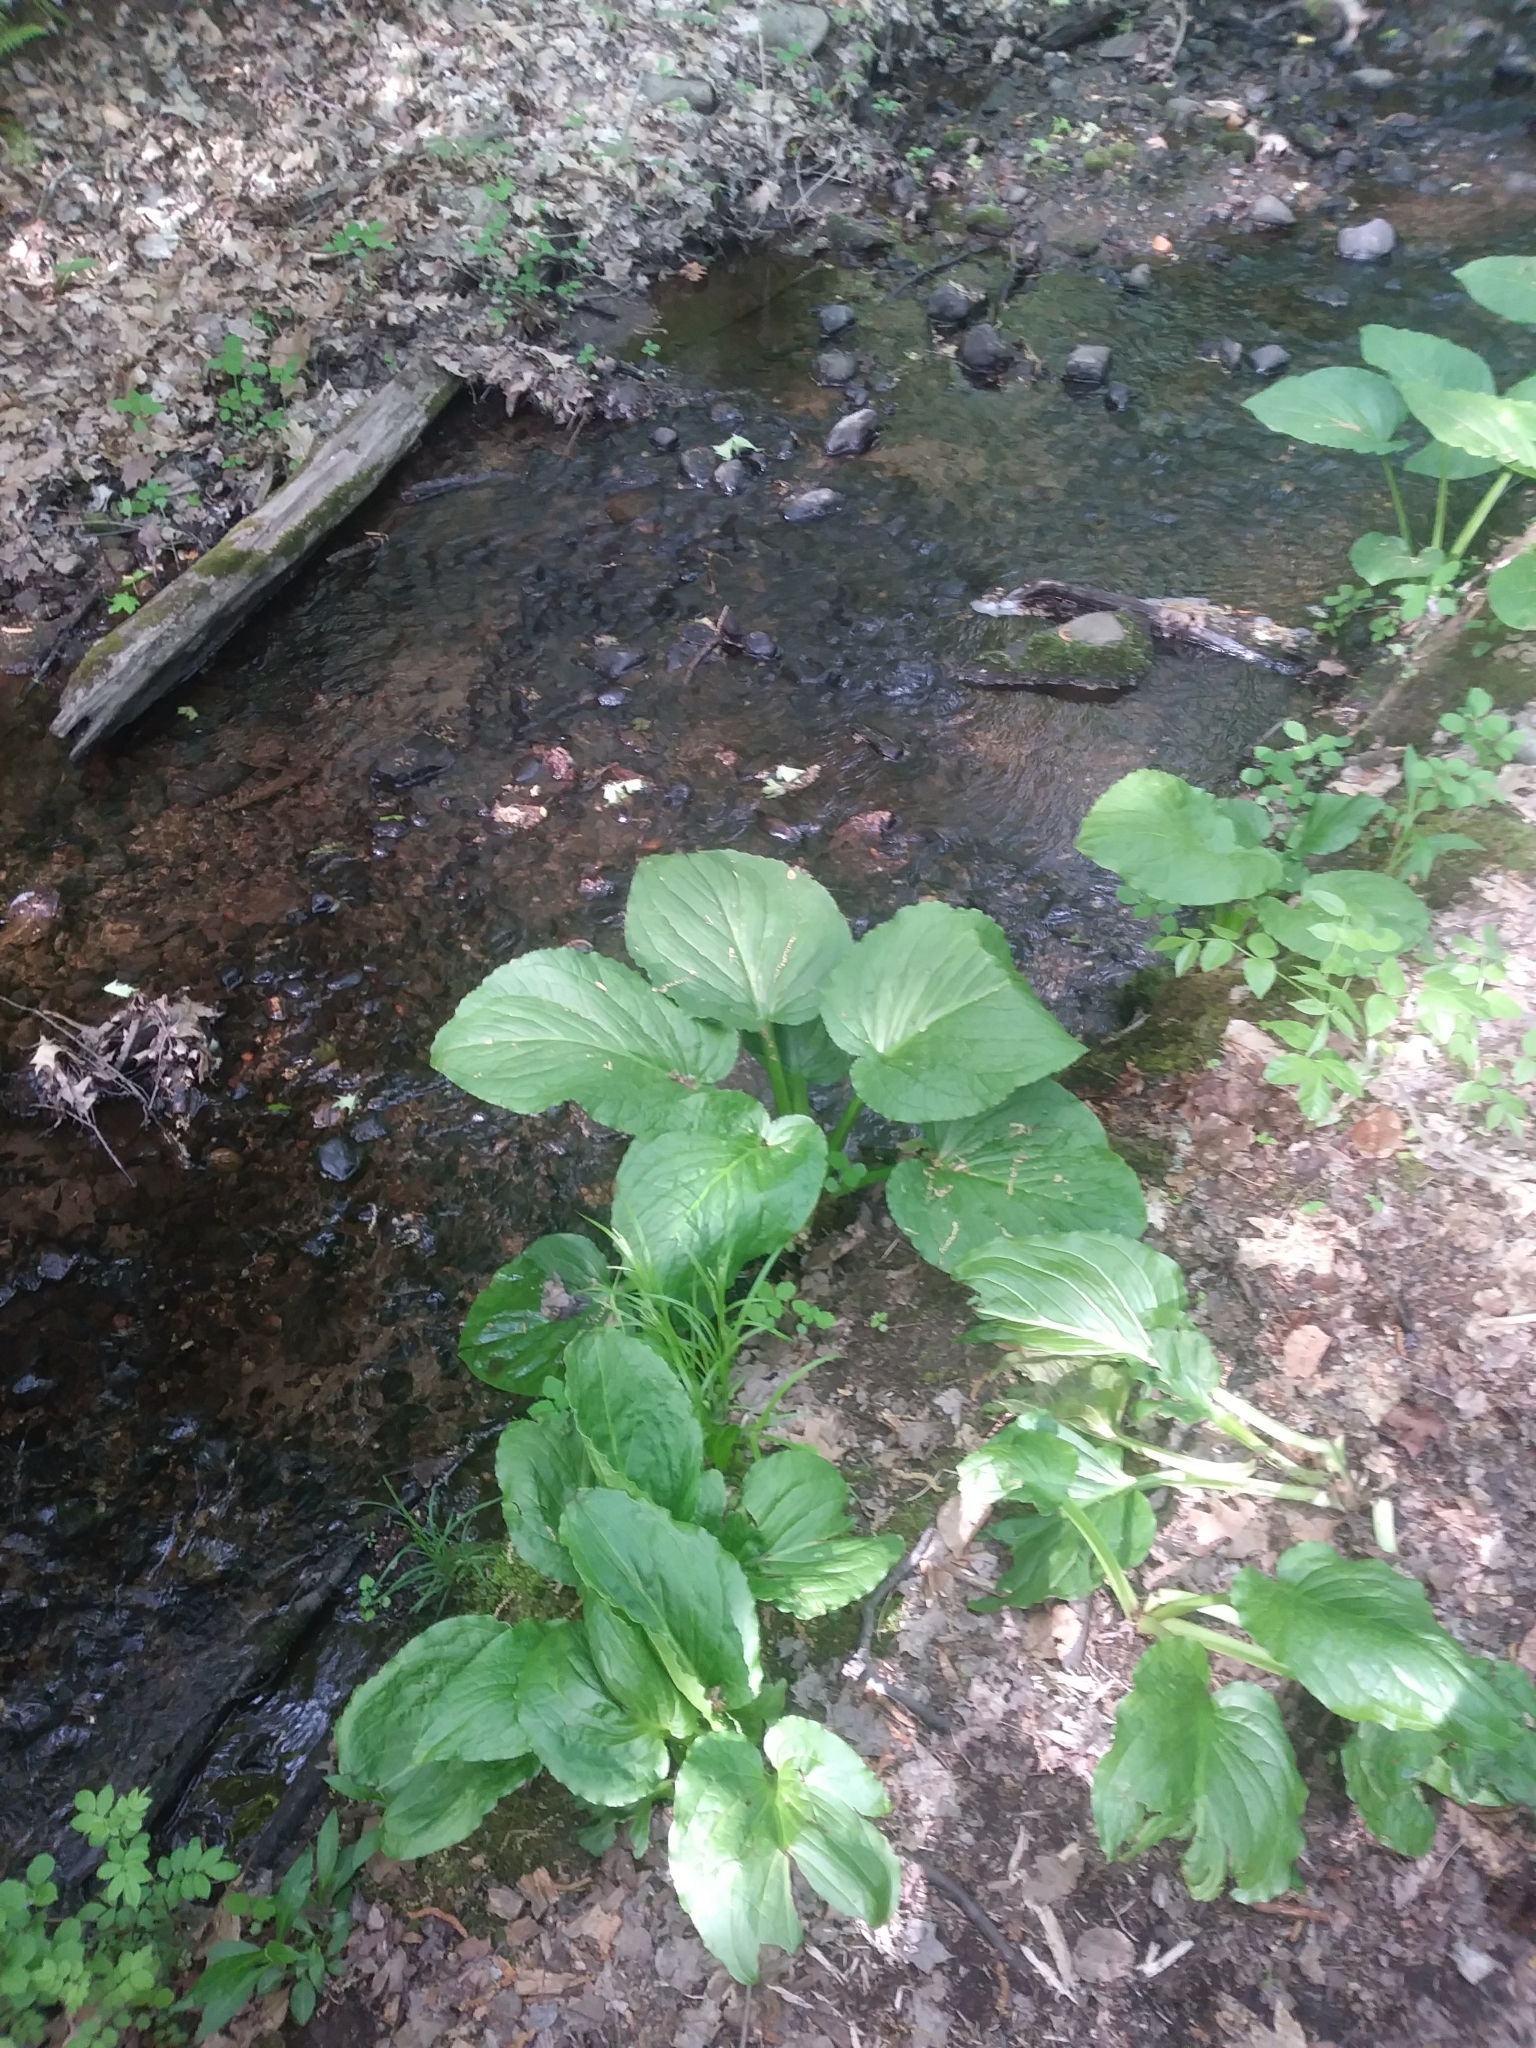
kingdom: Plantae
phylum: Tracheophyta
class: Liliopsida
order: Alismatales
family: Araceae
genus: Symplocarpus
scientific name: Symplocarpus foetidus
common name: Eastern skunk cabbage
